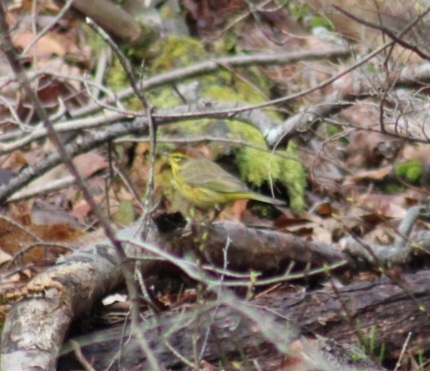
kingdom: Animalia
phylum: Chordata
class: Aves
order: Passeriformes
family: Parulidae
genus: Setophaga
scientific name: Setophaga palmarum
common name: Palm warbler
